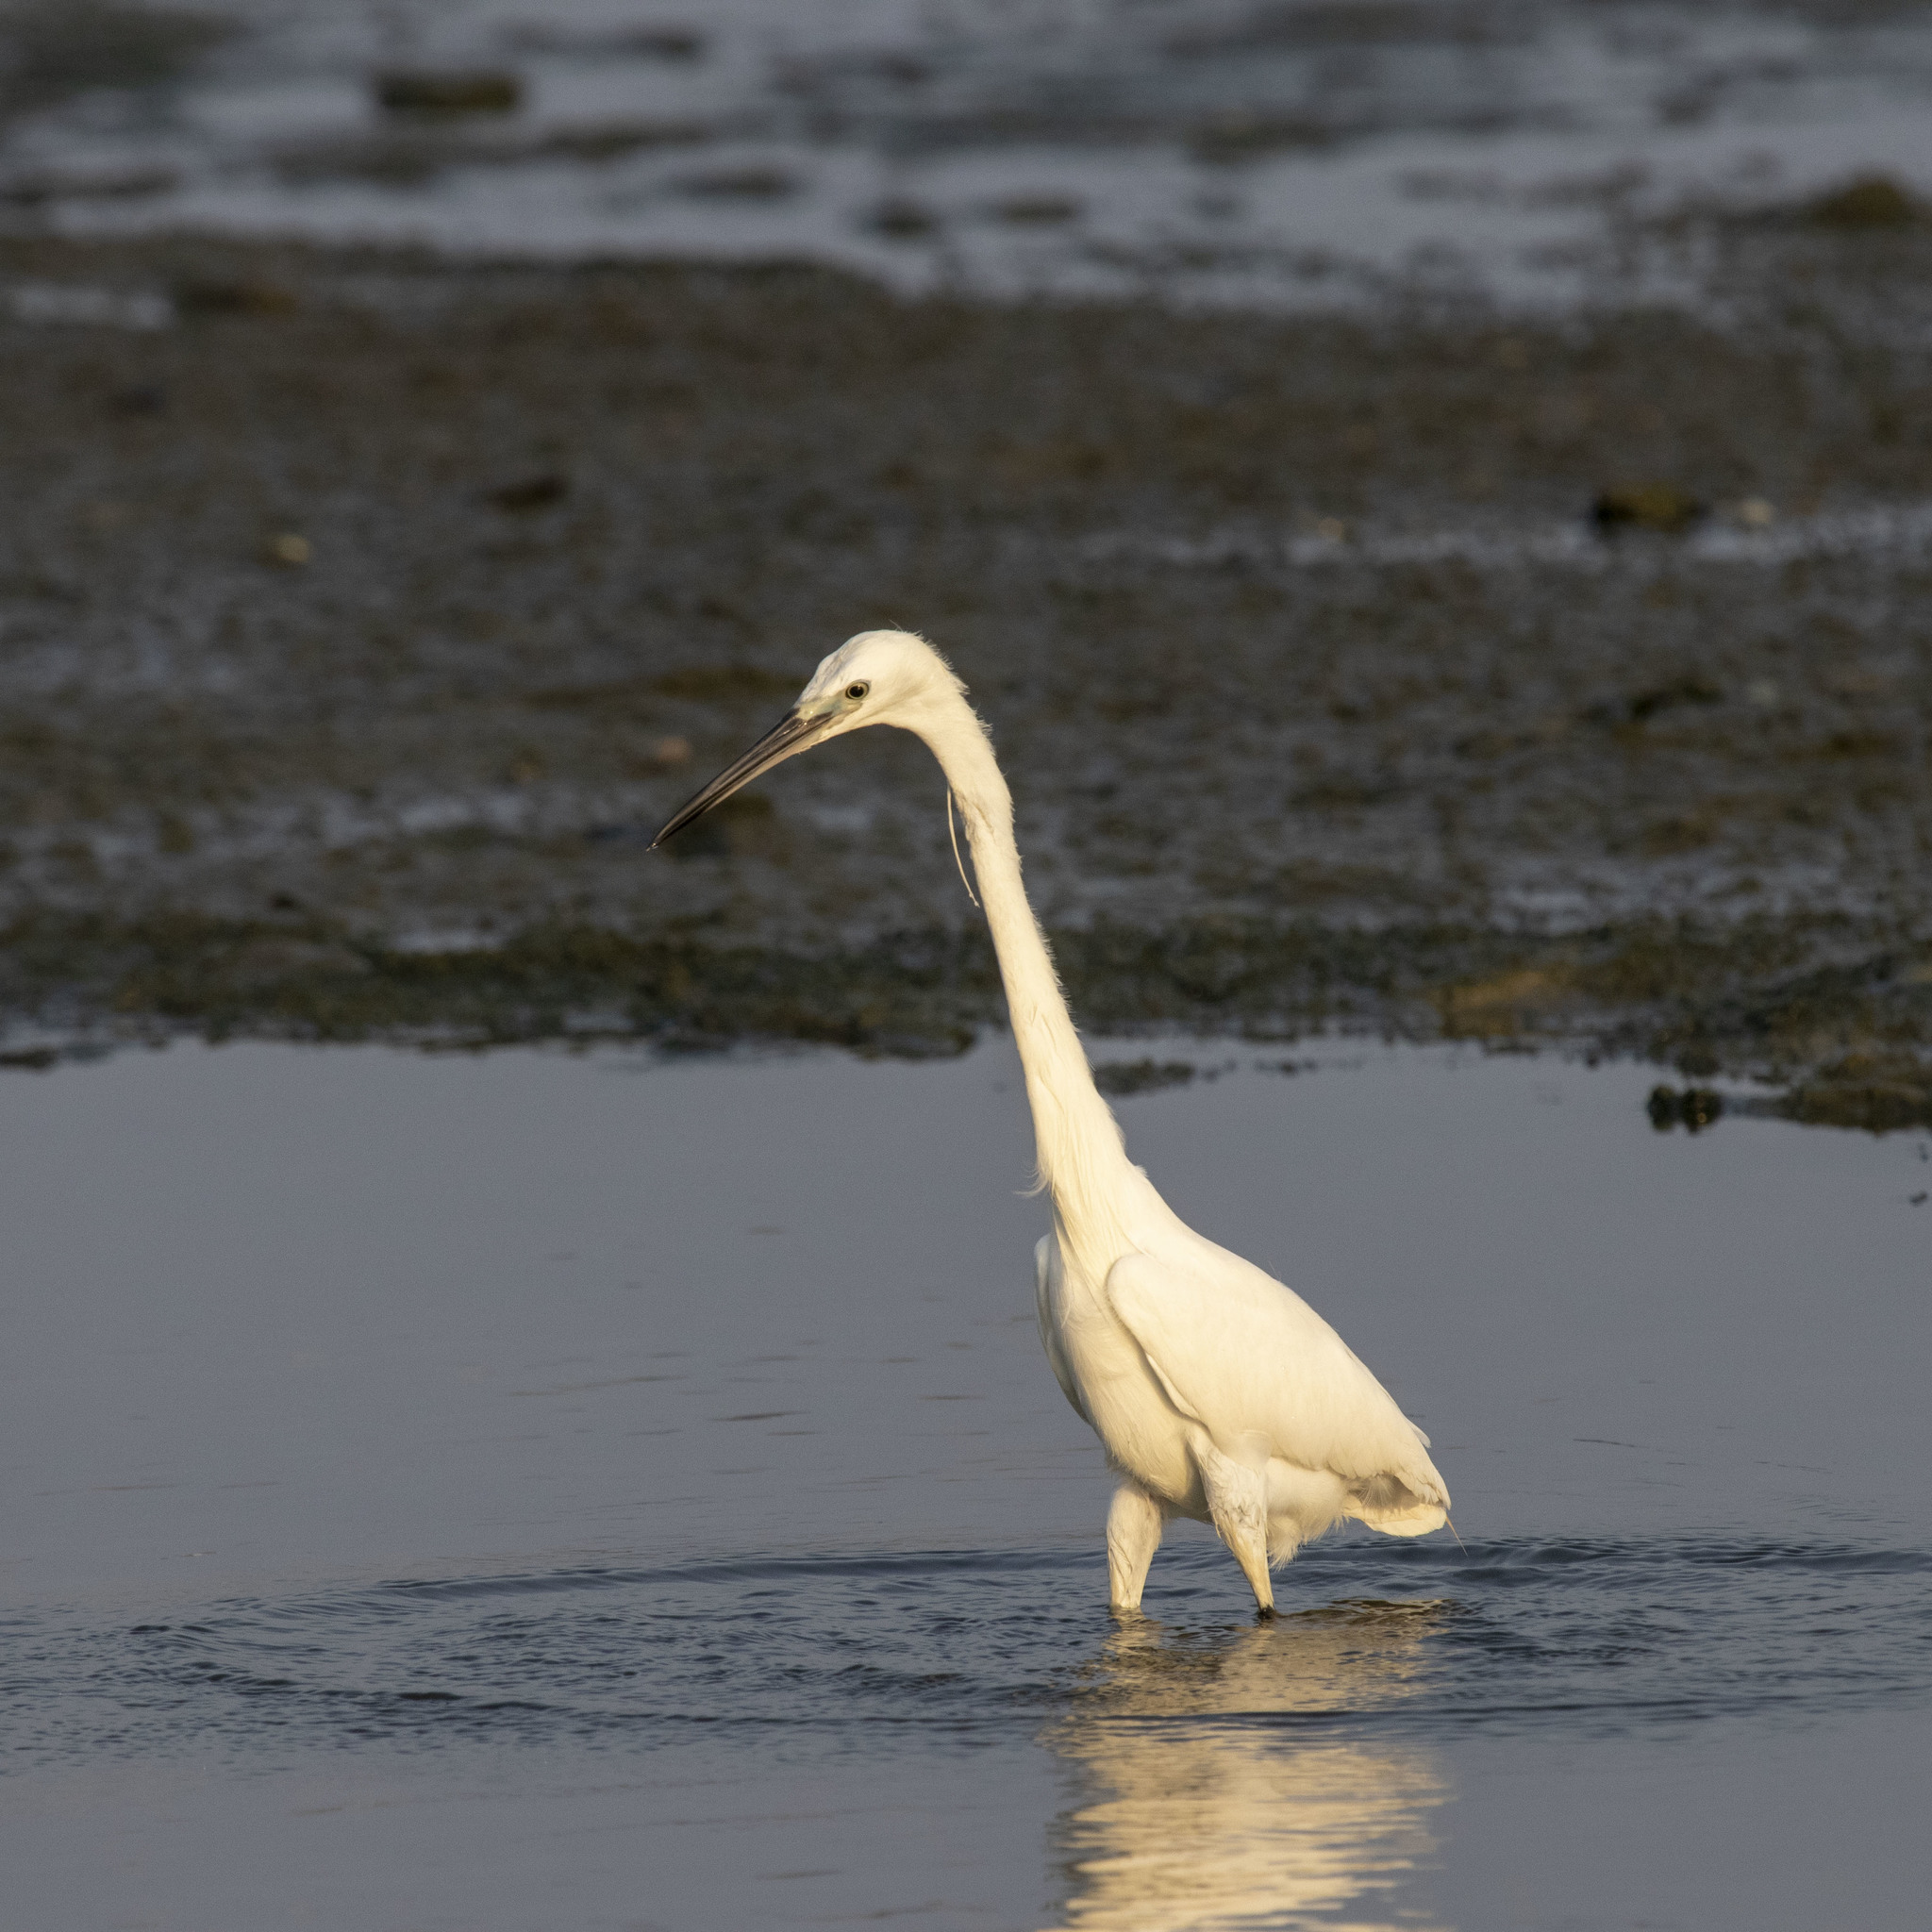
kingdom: Animalia
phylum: Chordata
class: Aves
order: Pelecaniformes
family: Ardeidae
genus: Egretta
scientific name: Egretta garzetta
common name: Little egret
